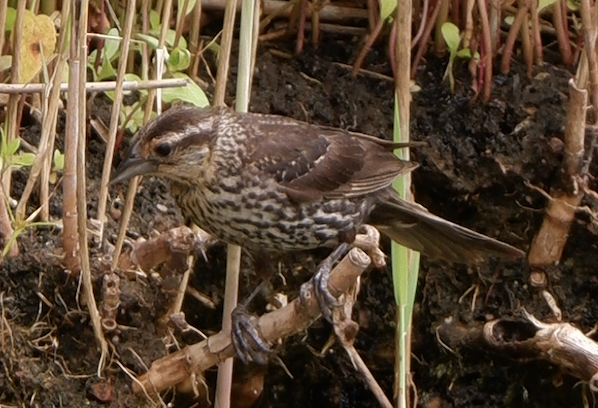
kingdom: Animalia
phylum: Chordata
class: Aves
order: Passeriformes
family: Icteridae
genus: Agelaius
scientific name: Agelaius phoeniceus
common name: Red-winged blackbird
